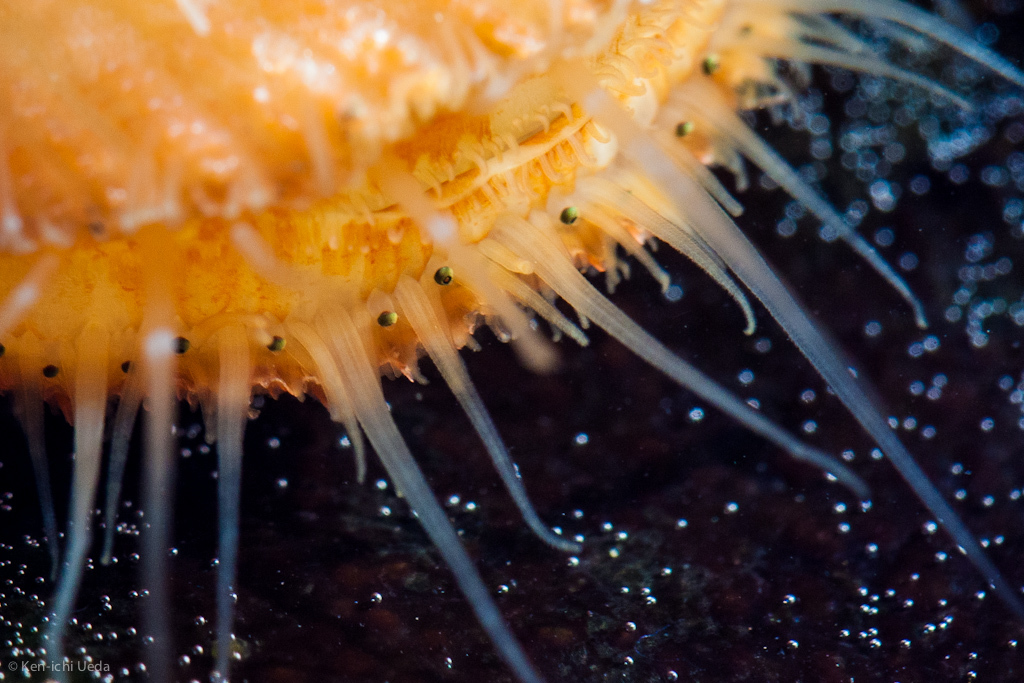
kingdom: Animalia
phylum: Mollusca
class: Bivalvia
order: Pectinida
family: Pectinidae
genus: Crassadoma
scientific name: Crassadoma gigantea
